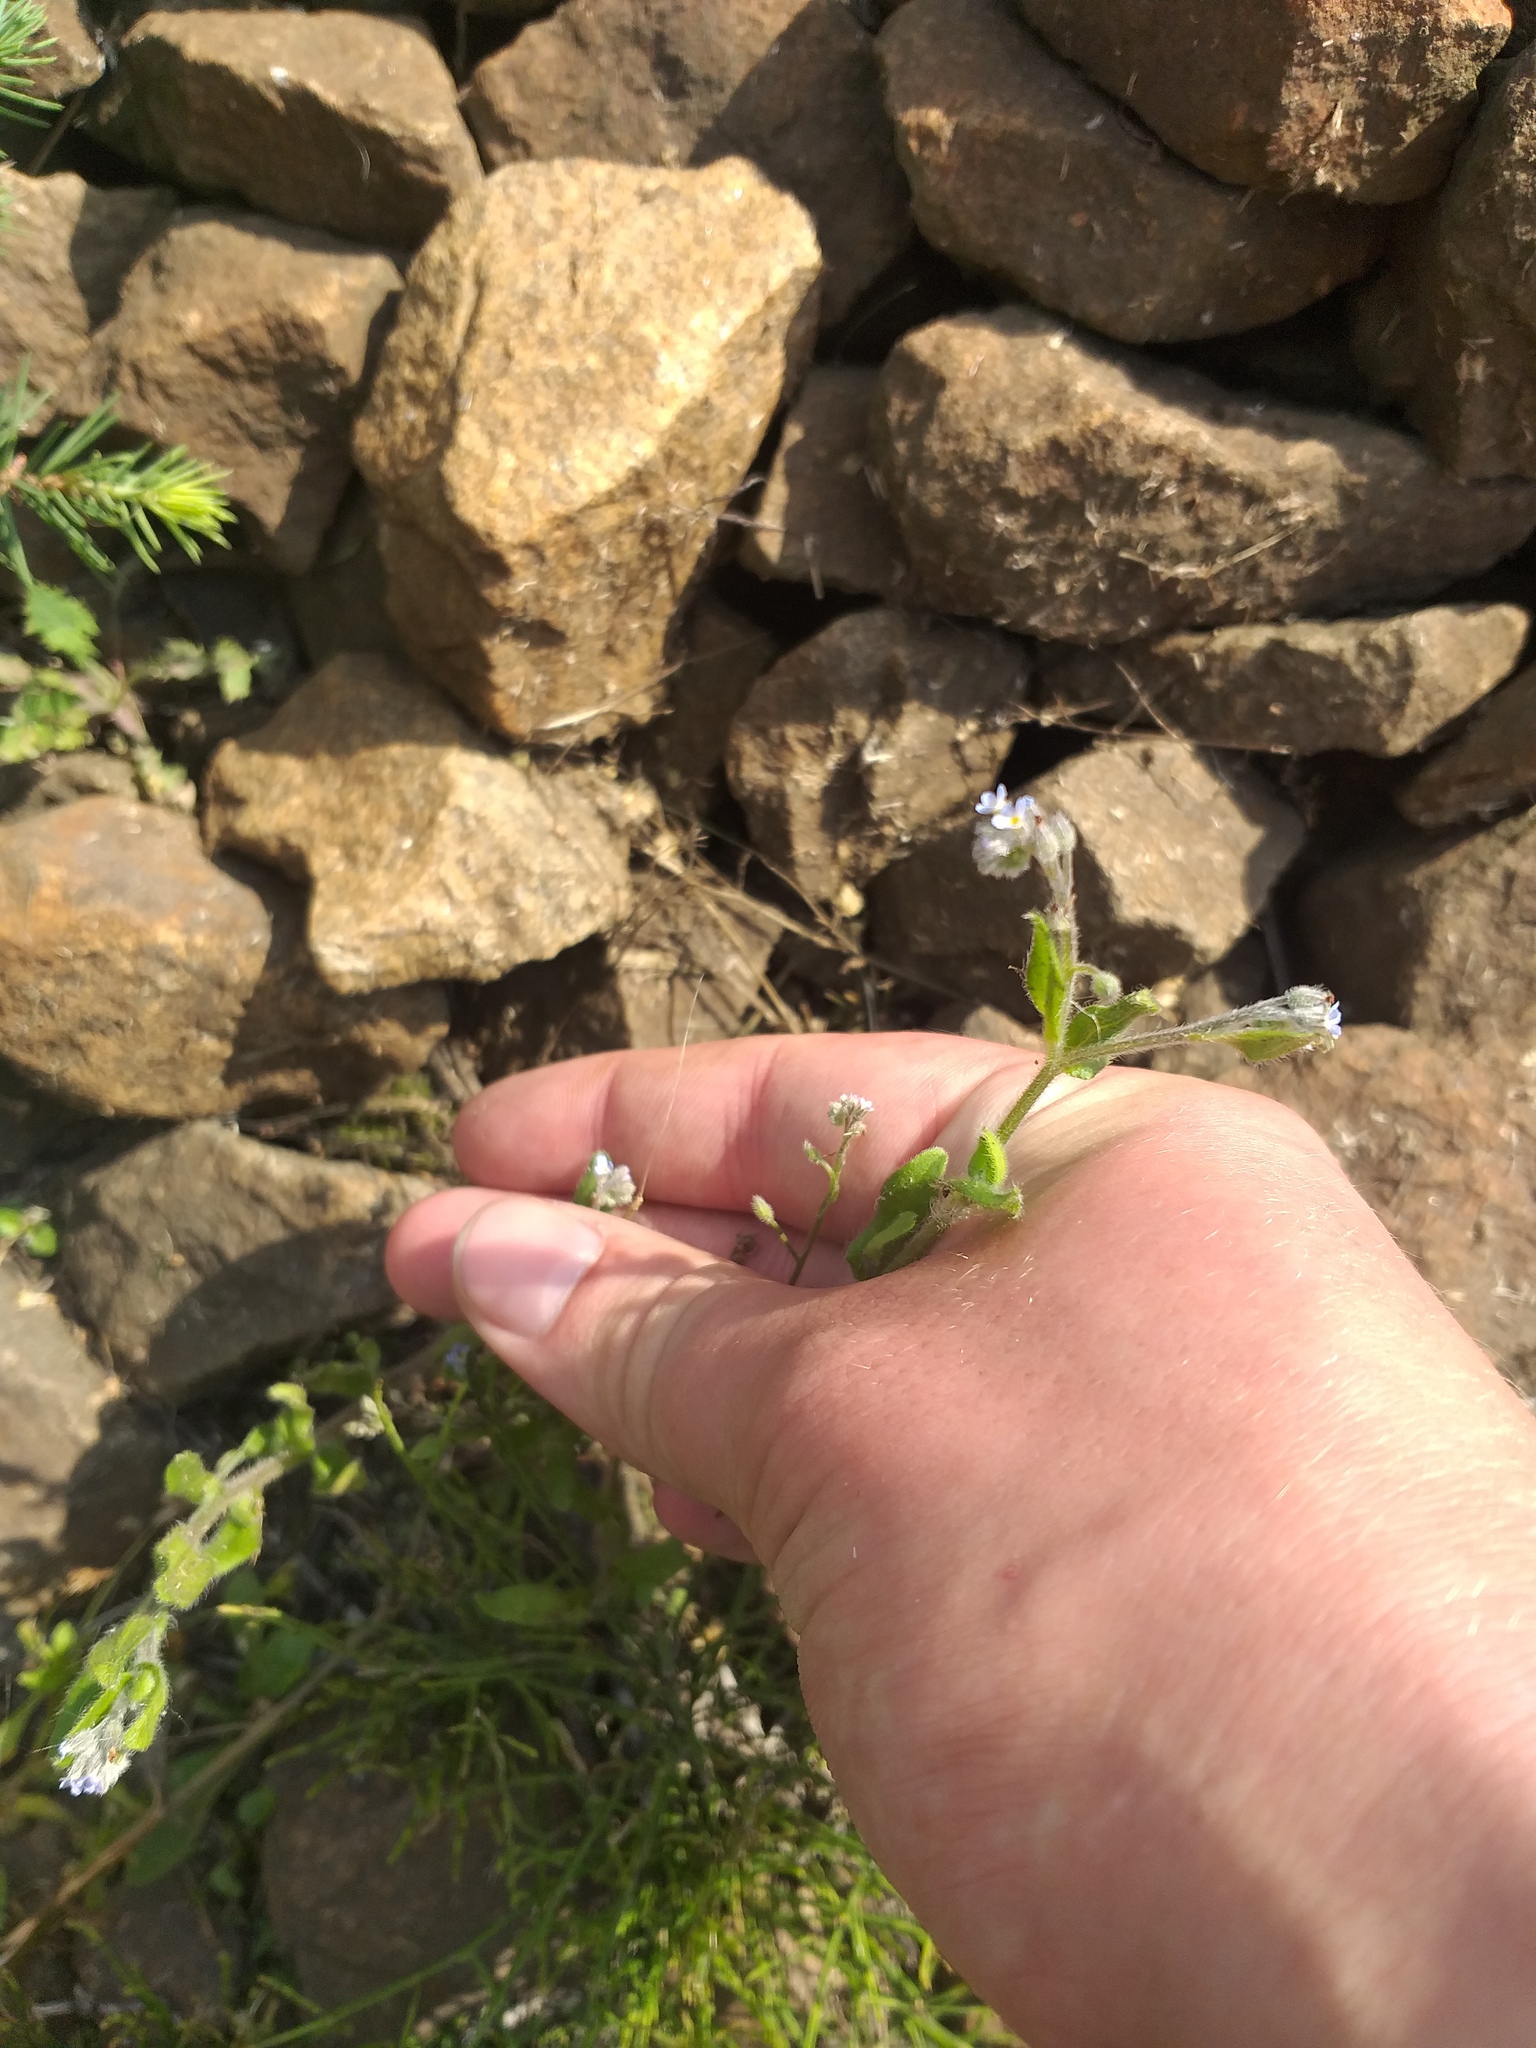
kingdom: Plantae
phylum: Tracheophyta
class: Magnoliopsida
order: Boraginales
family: Boraginaceae
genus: Myosotis
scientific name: Myosotis arvensis
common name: Field forget-me-not
